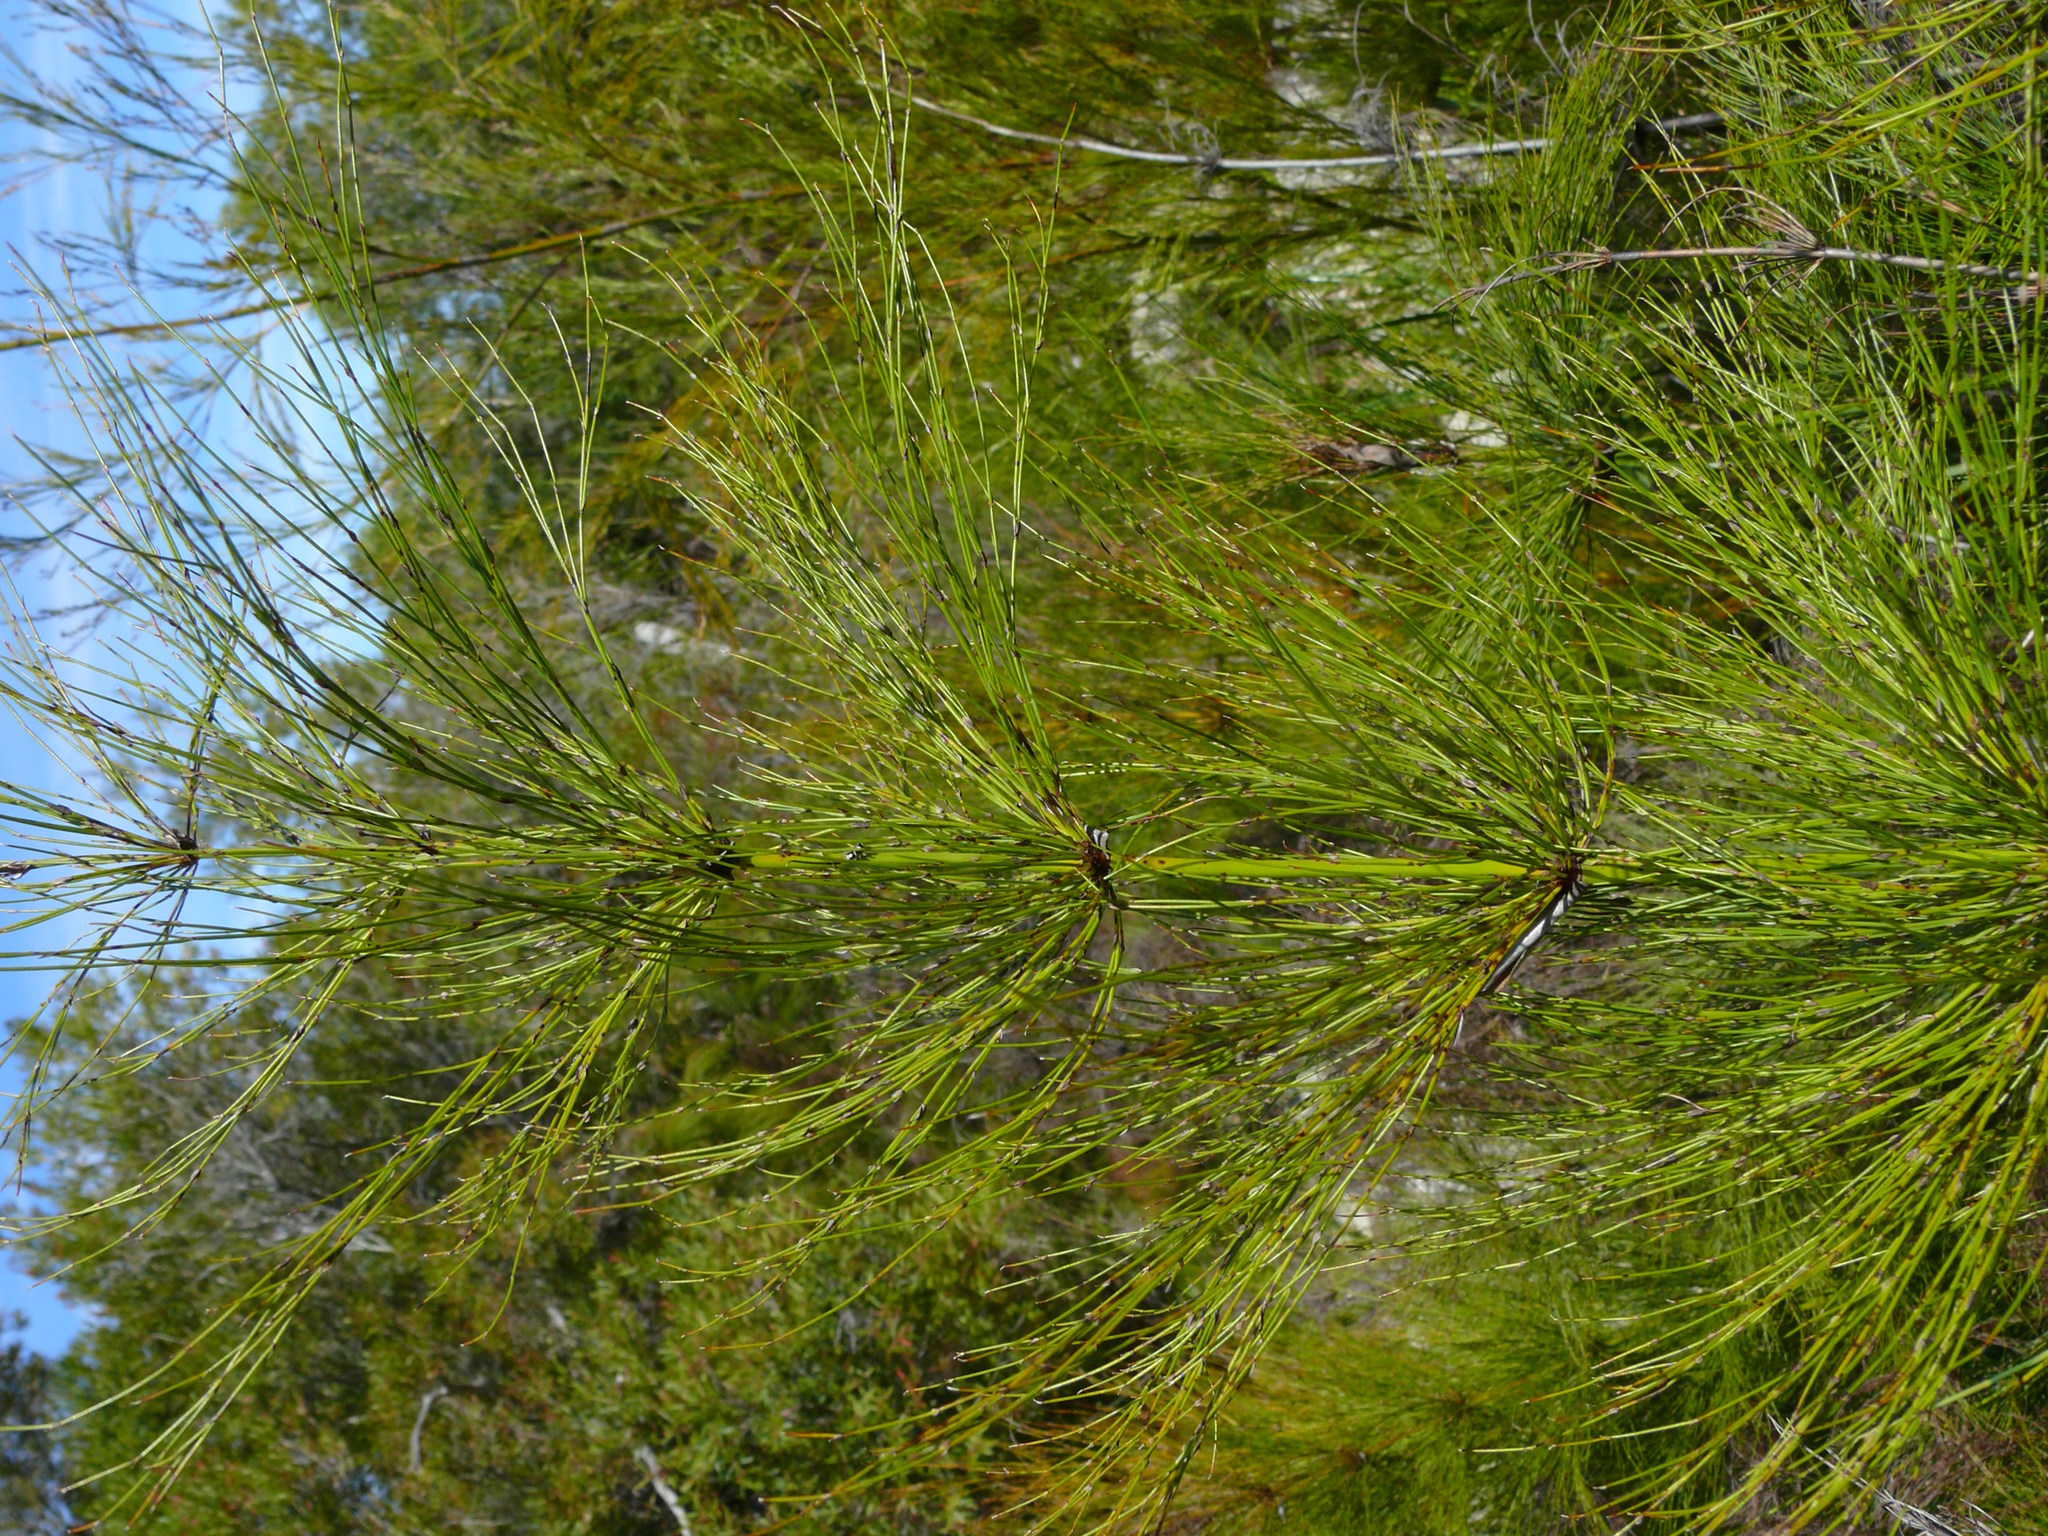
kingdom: Plantae
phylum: Tracheophyta
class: Liliopsida
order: Poales
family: Restionaceae
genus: Elegia
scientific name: Elegia capensis
